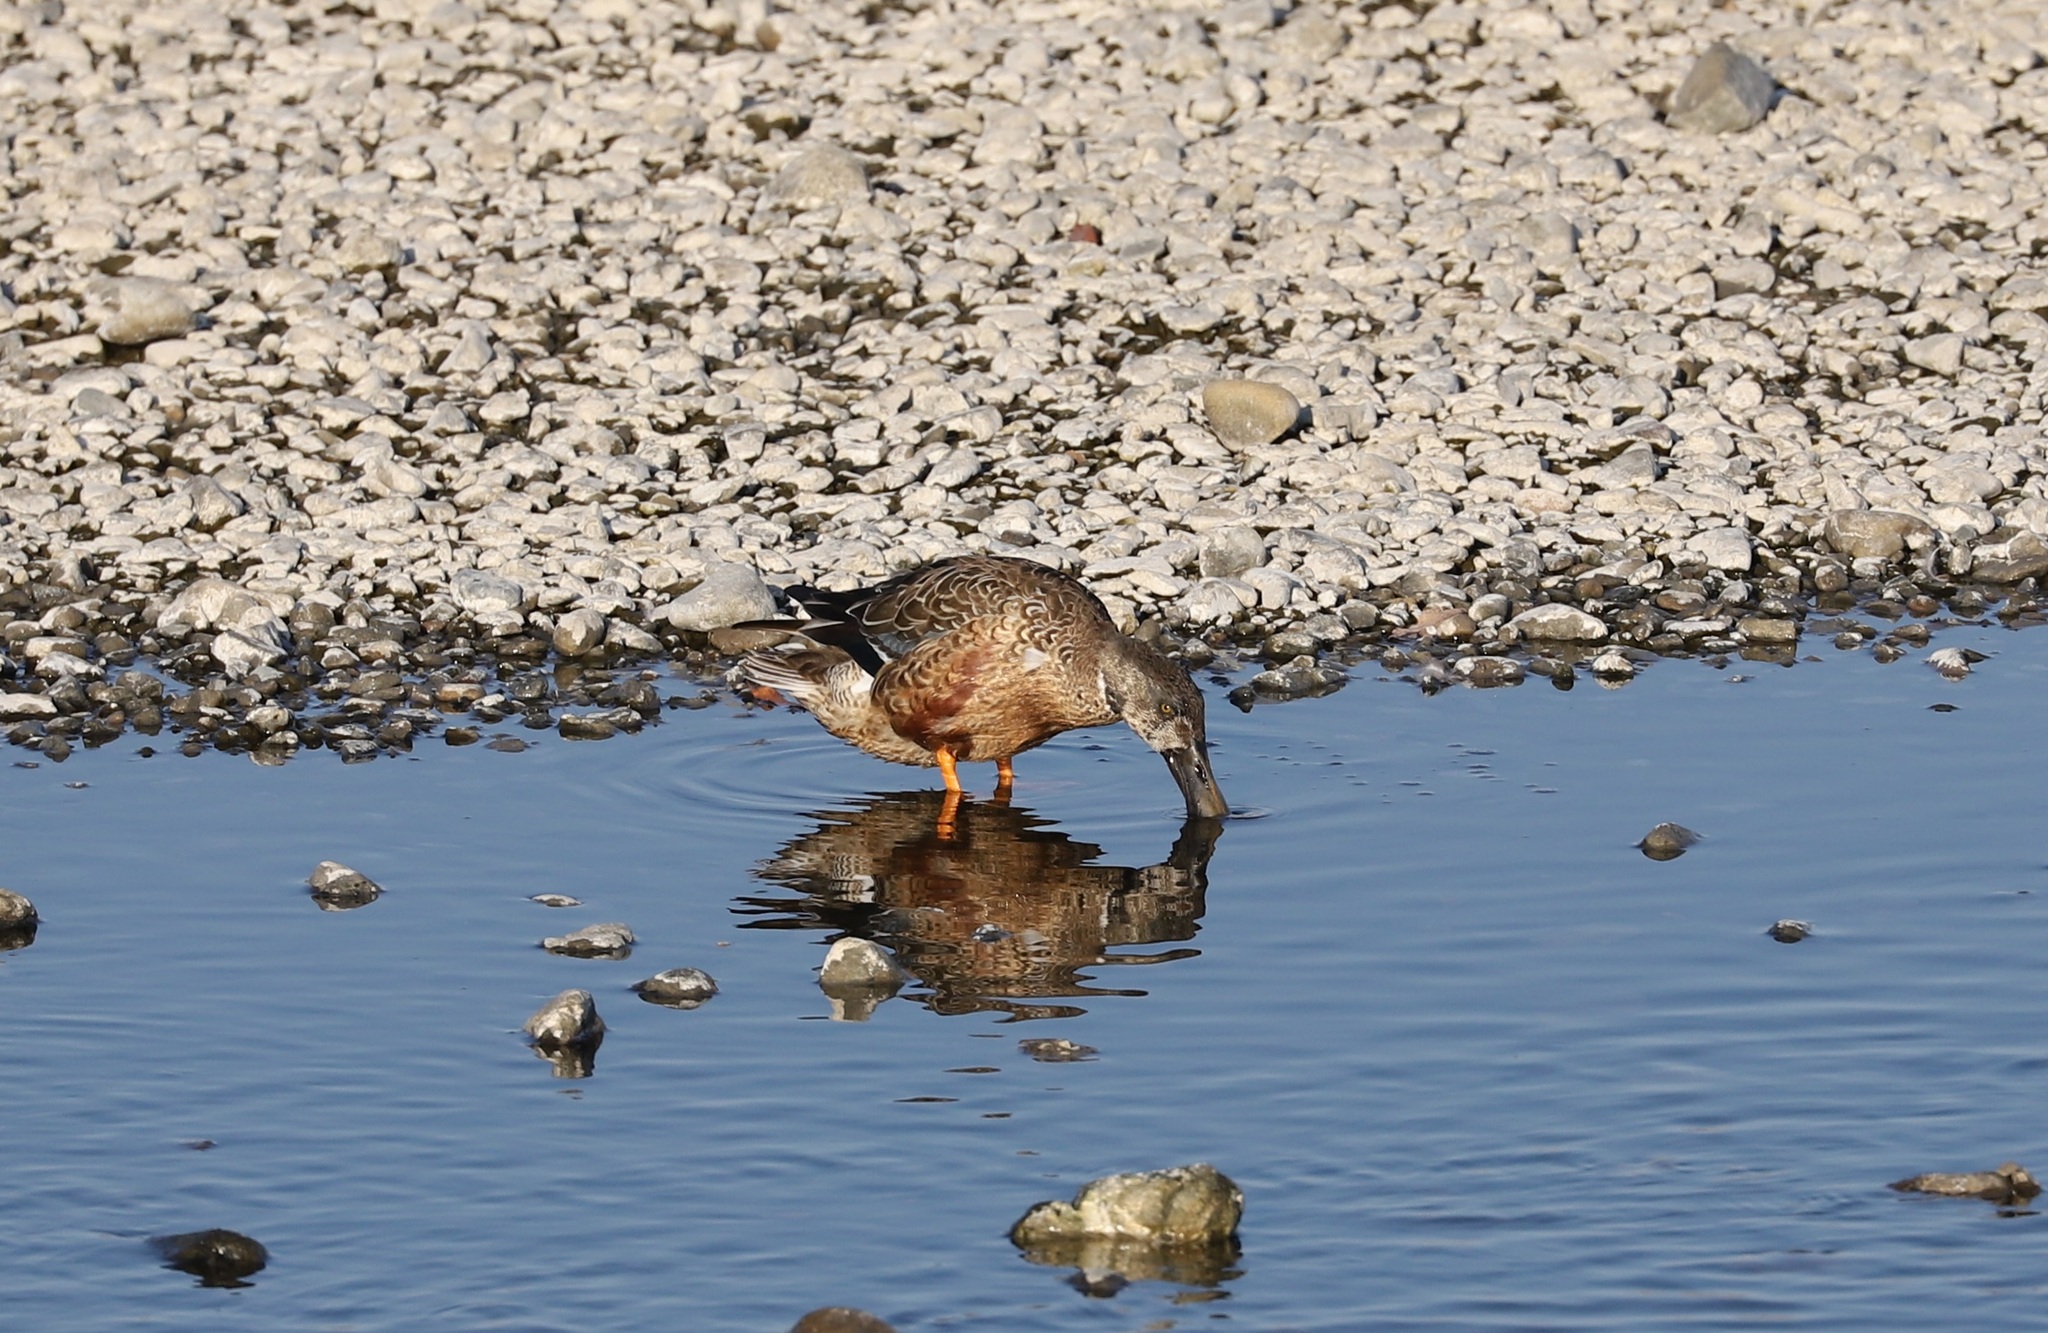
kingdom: Animalia
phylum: Chordata
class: Aves
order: Anseriformes
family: Anatidae
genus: Spatula
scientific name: Spatula clypeata
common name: Northern shoveler
